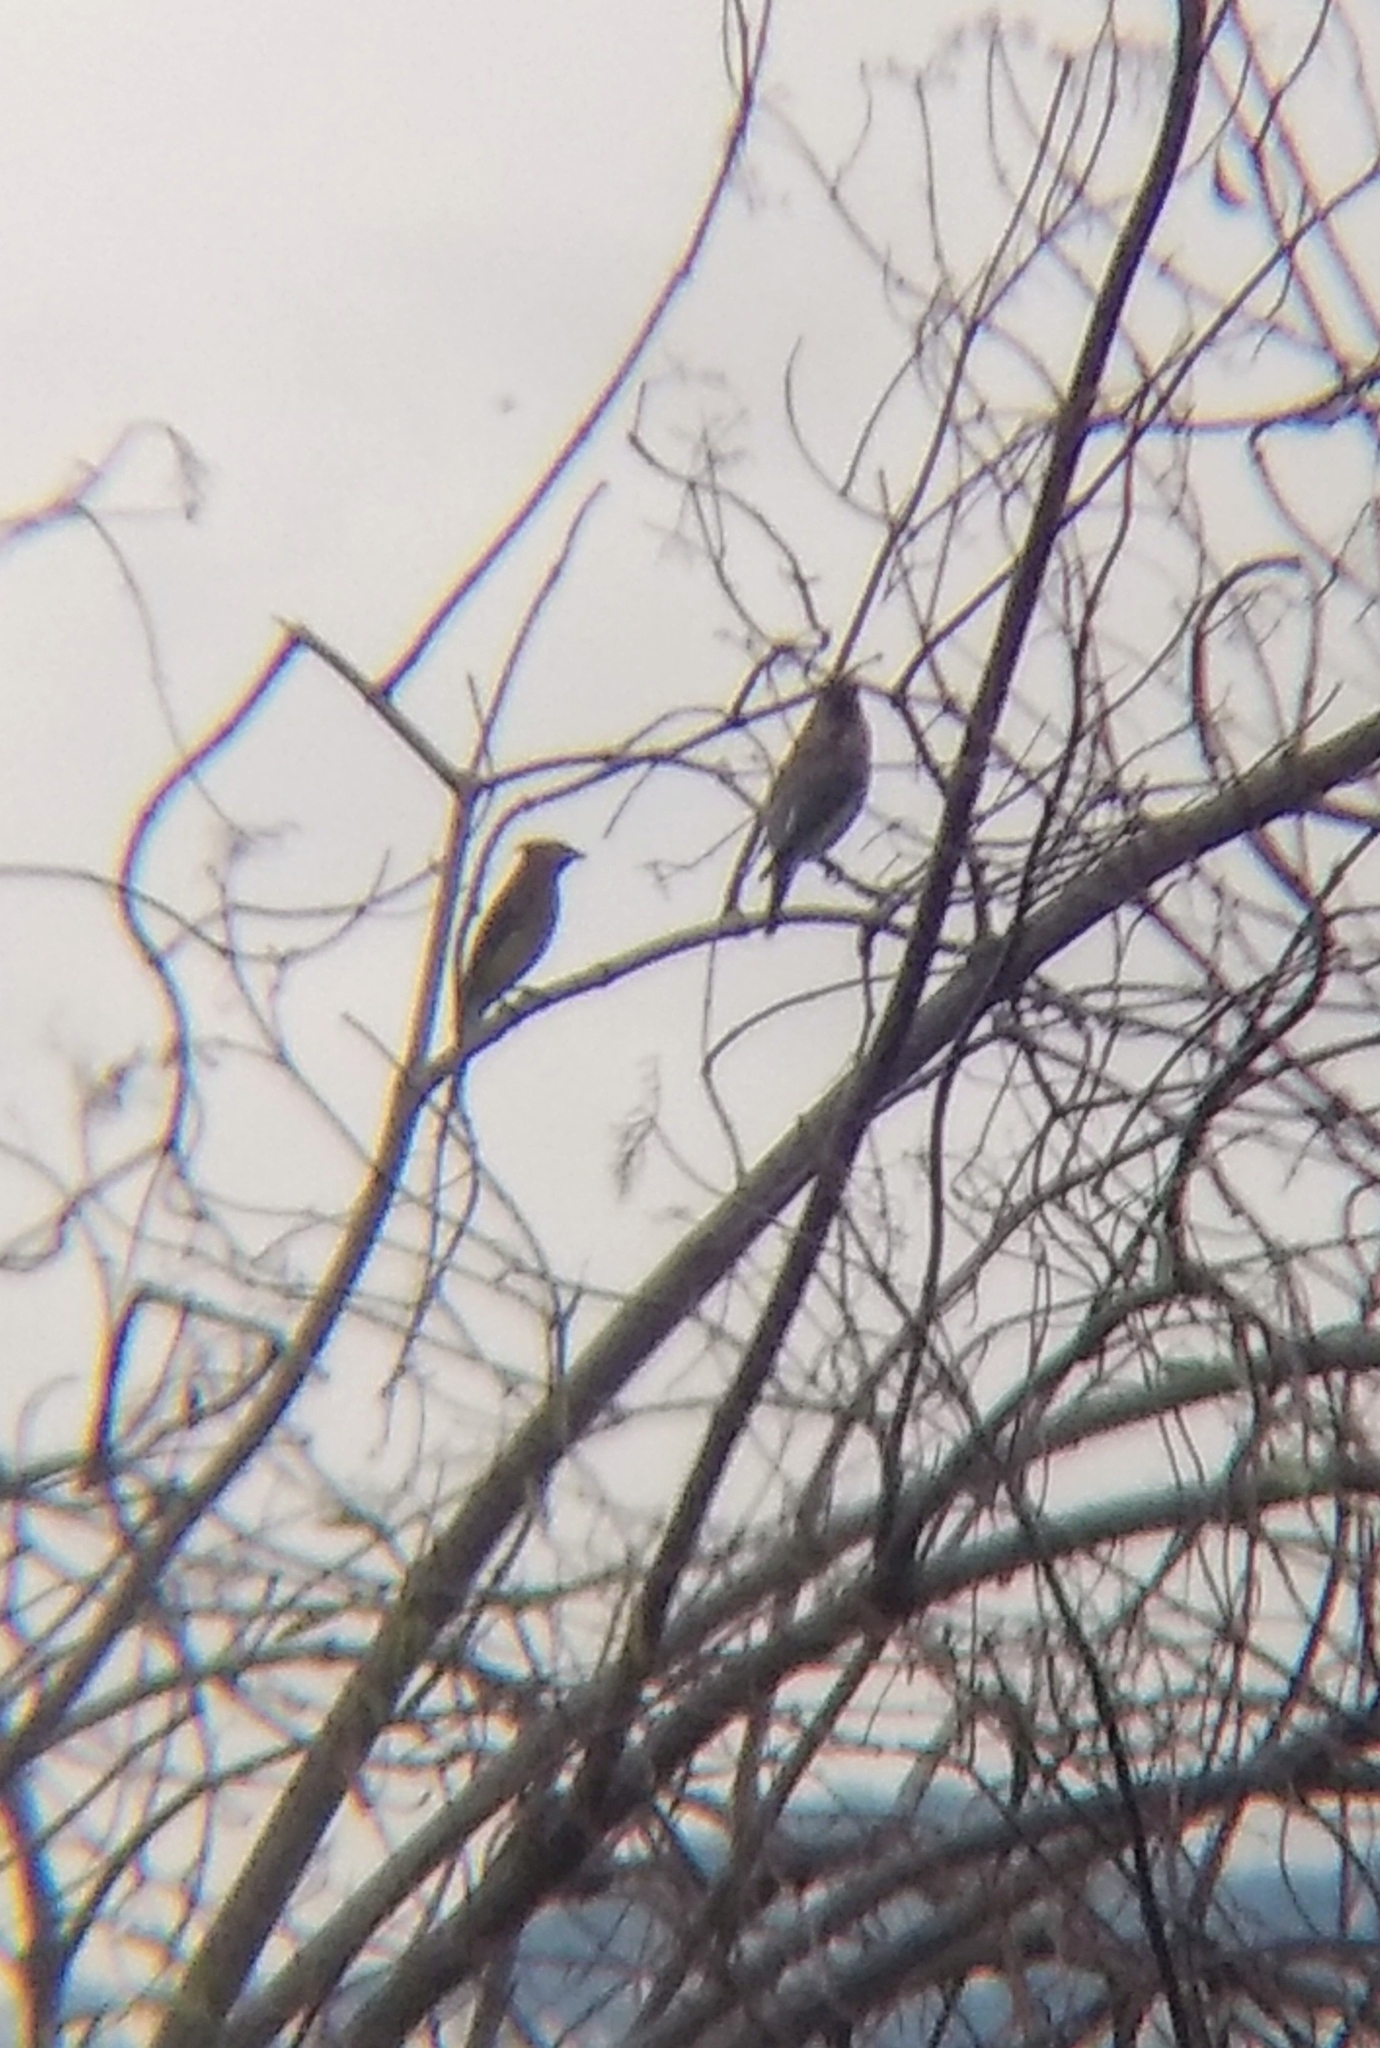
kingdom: Animalia
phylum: Chordata
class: Aves
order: Passeriformes
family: Bombycillidae
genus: Bombycilla
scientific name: Bombycilla cedrorum
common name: Cedar waxwing
